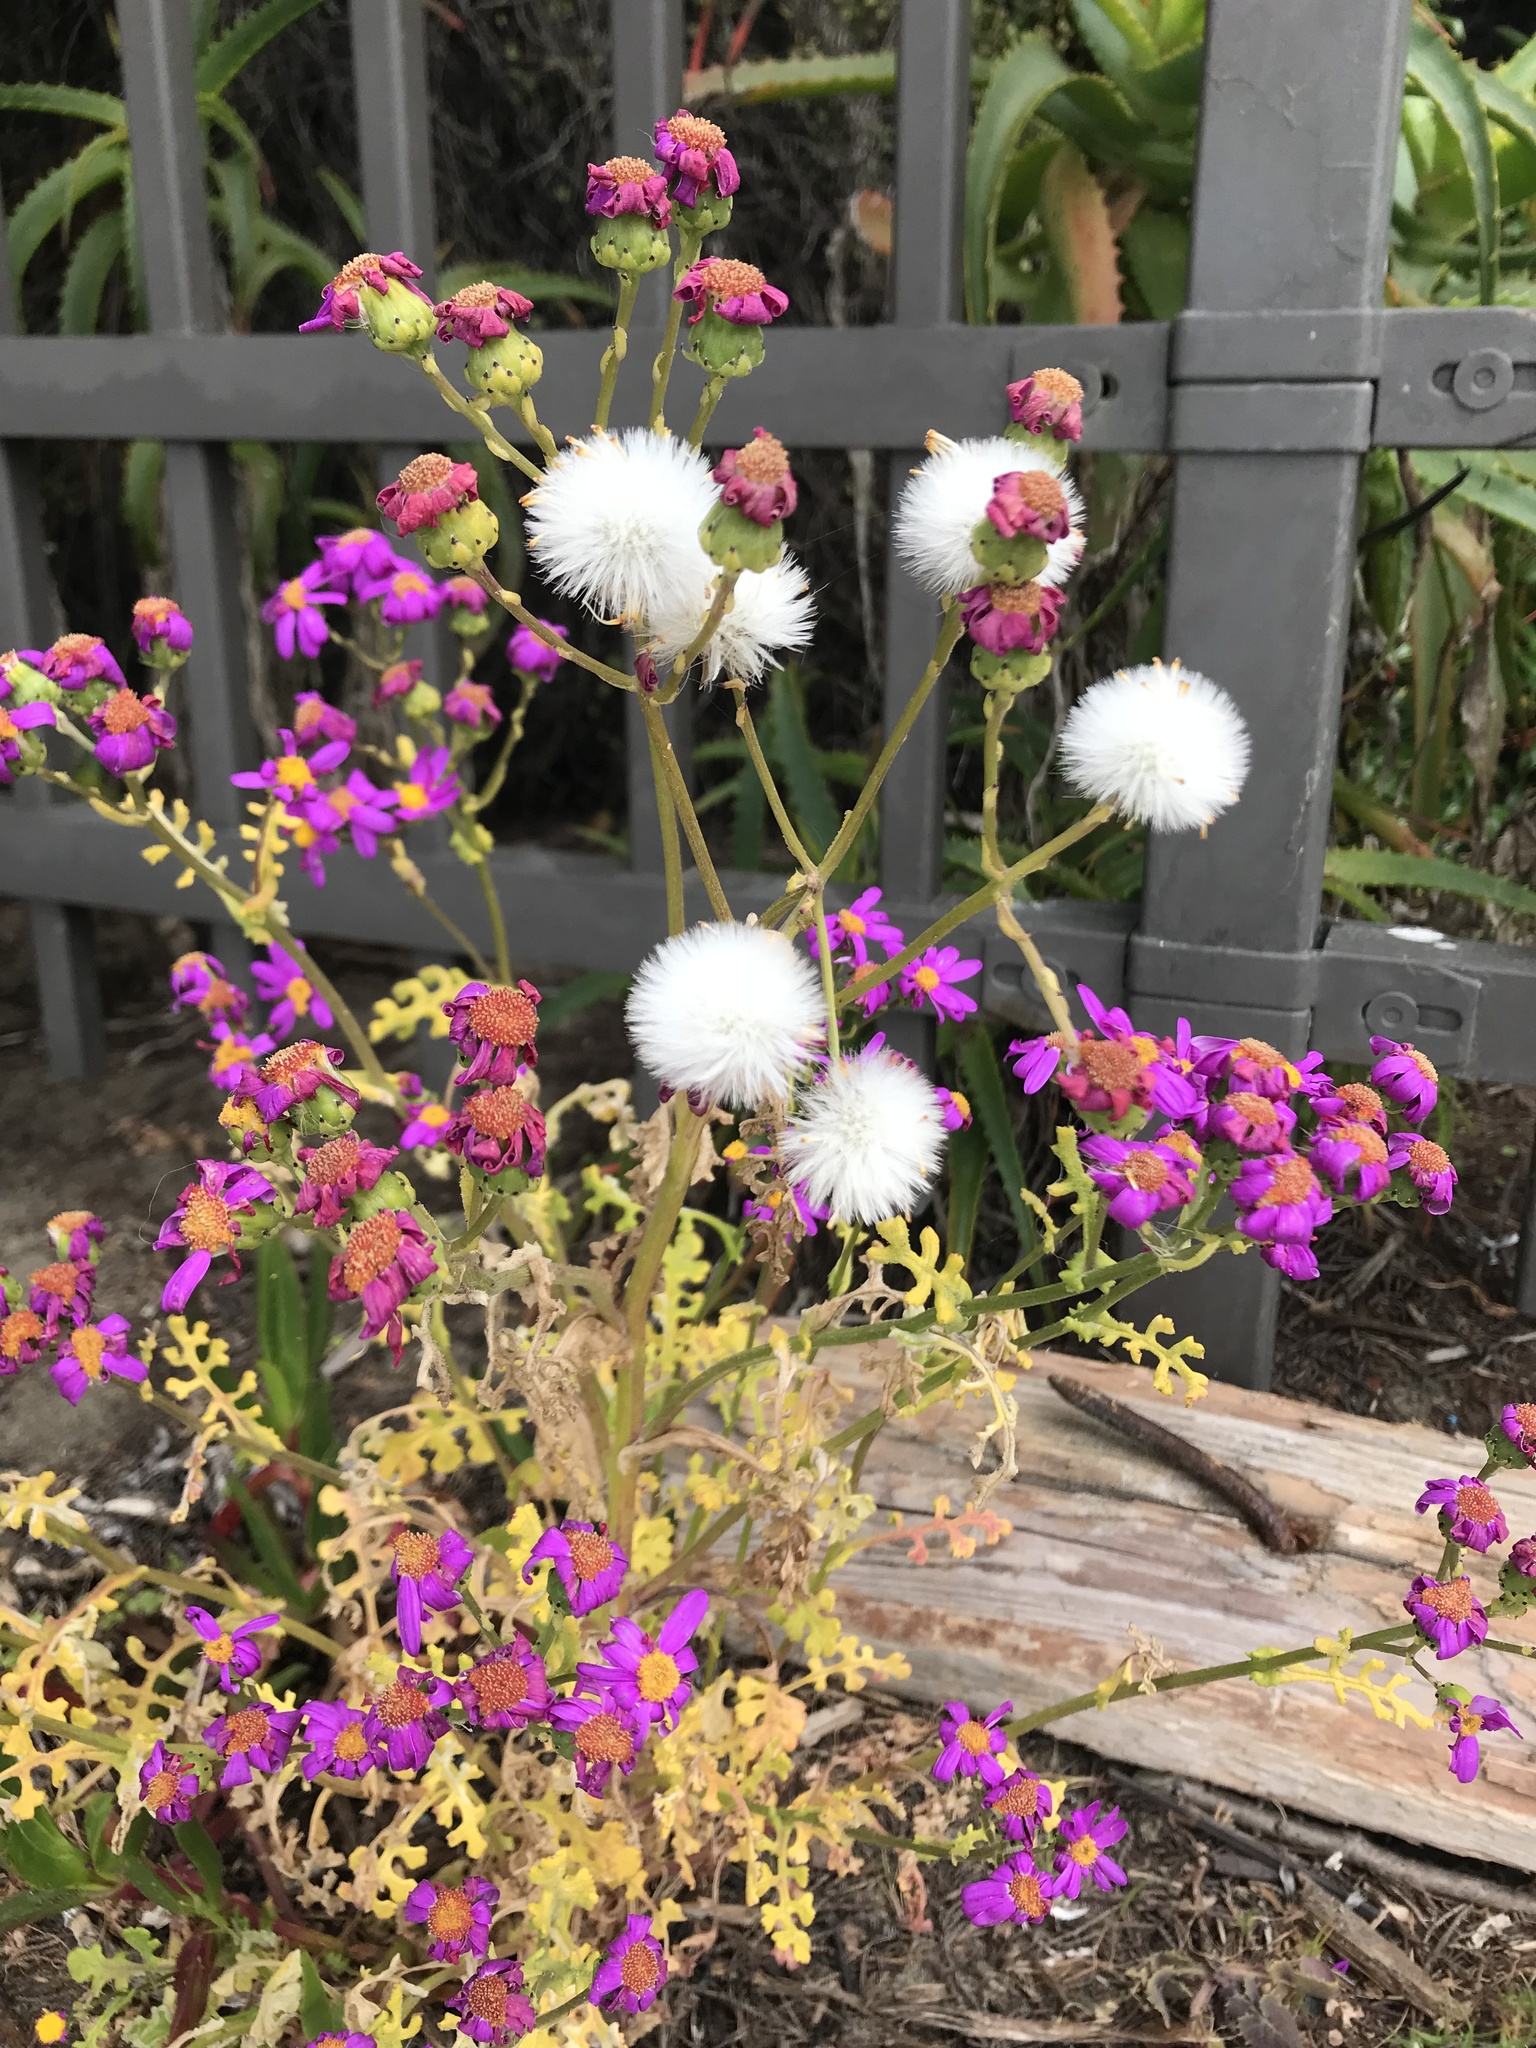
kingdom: Plantae
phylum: Tracheophyta
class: Magnoliopsida
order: Asterales
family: Asteraceae
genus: Senecio
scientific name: Senecio elegans
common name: Purple groundsel
